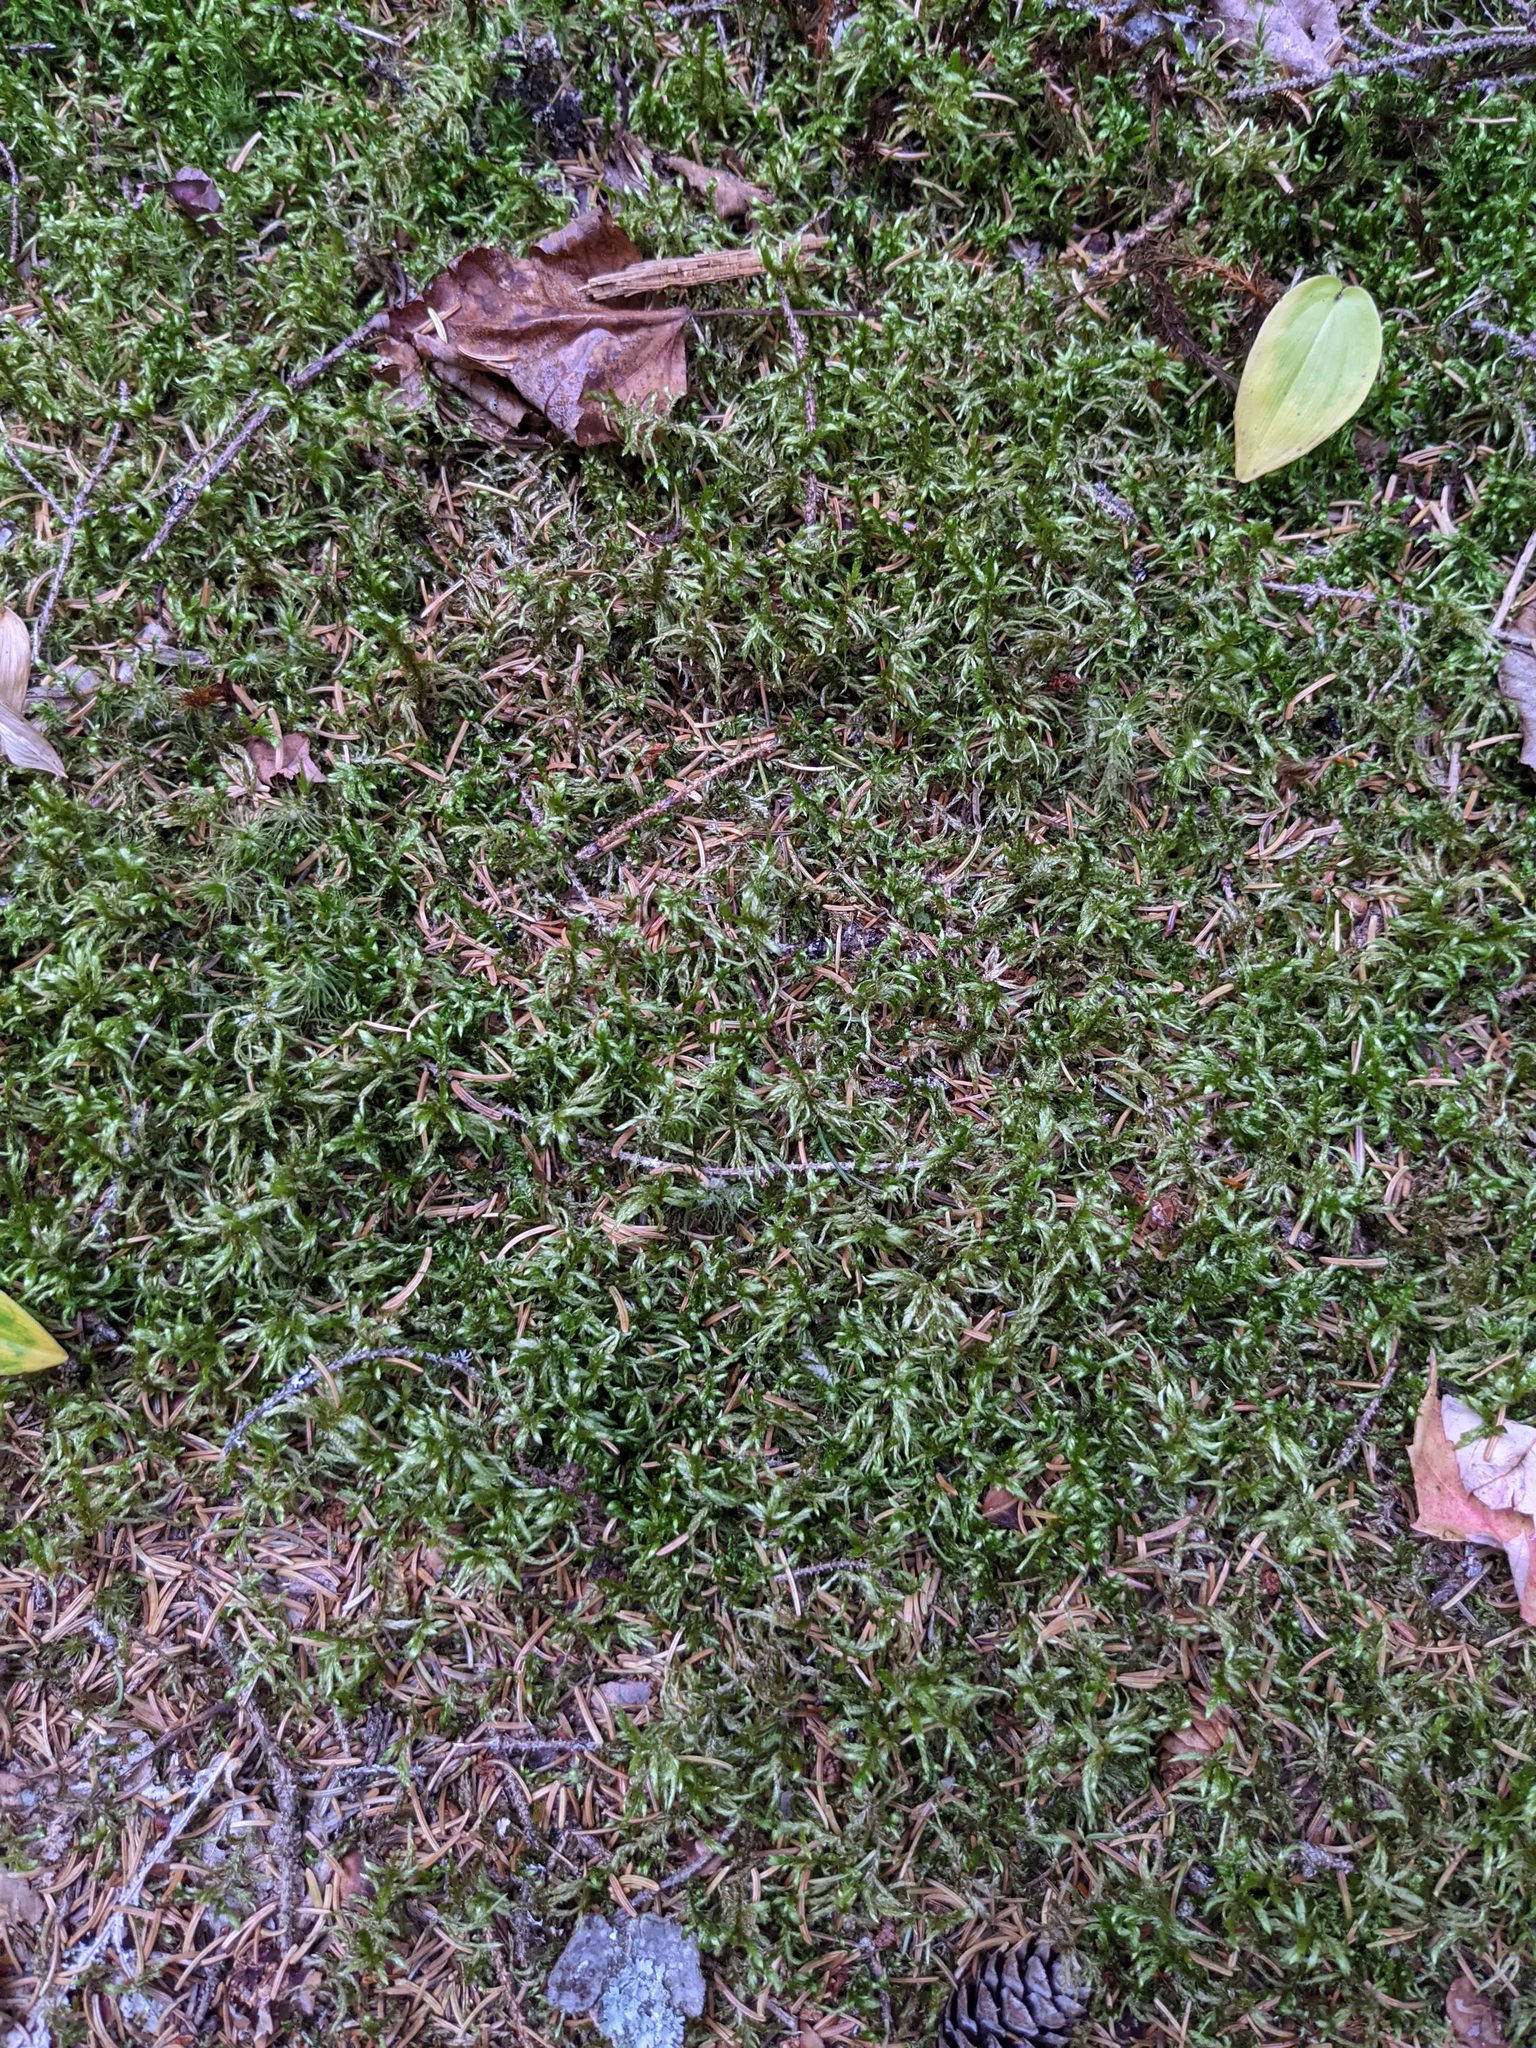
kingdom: Plantae
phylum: Bryophyta
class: Bryopsida
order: Hypnales
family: Hylocomiaceae
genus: Pleurozium
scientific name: Pleurozium schreberi
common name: Red-stemmed feather moss
